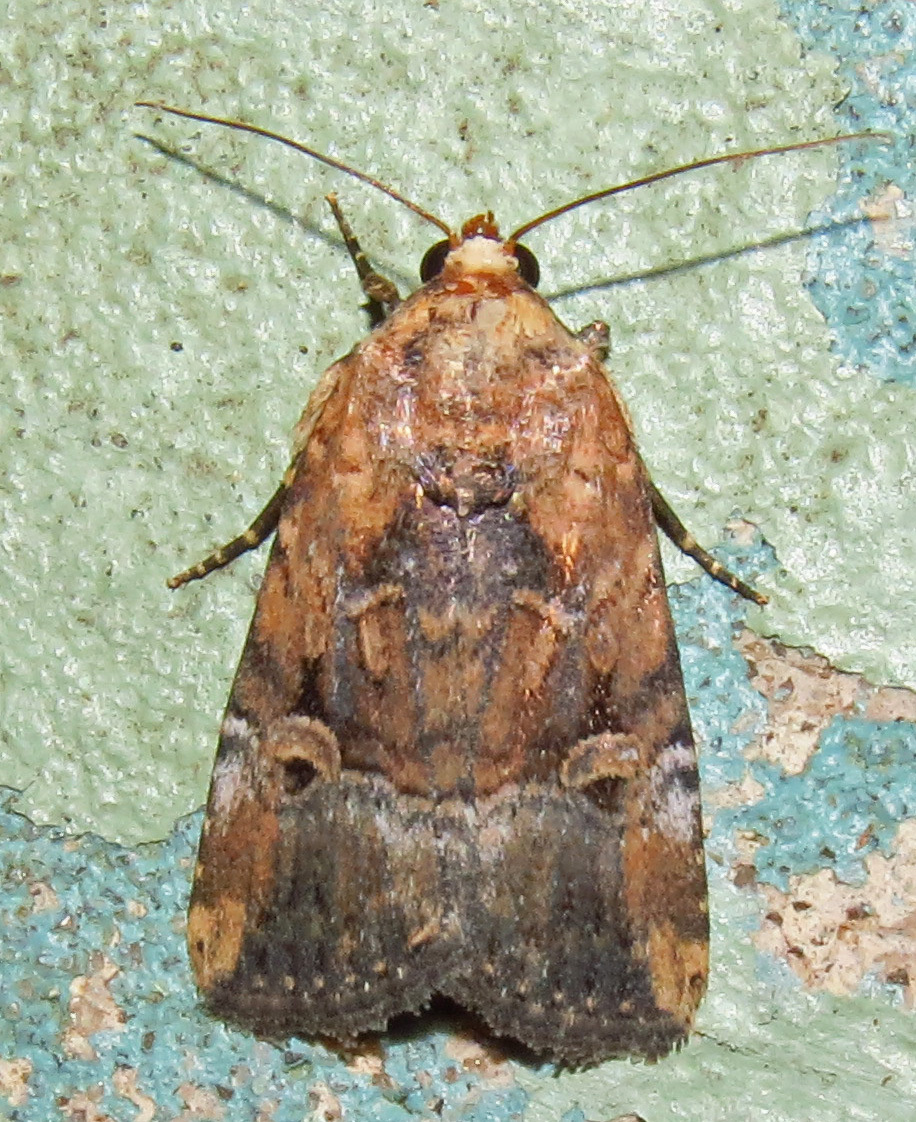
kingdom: Animalia
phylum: Arthropoda
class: Insecta
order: Lepidoptera
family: Noctuidae
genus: Elaphria
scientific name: Elaphria chalcedonia
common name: Chalcedony midget
